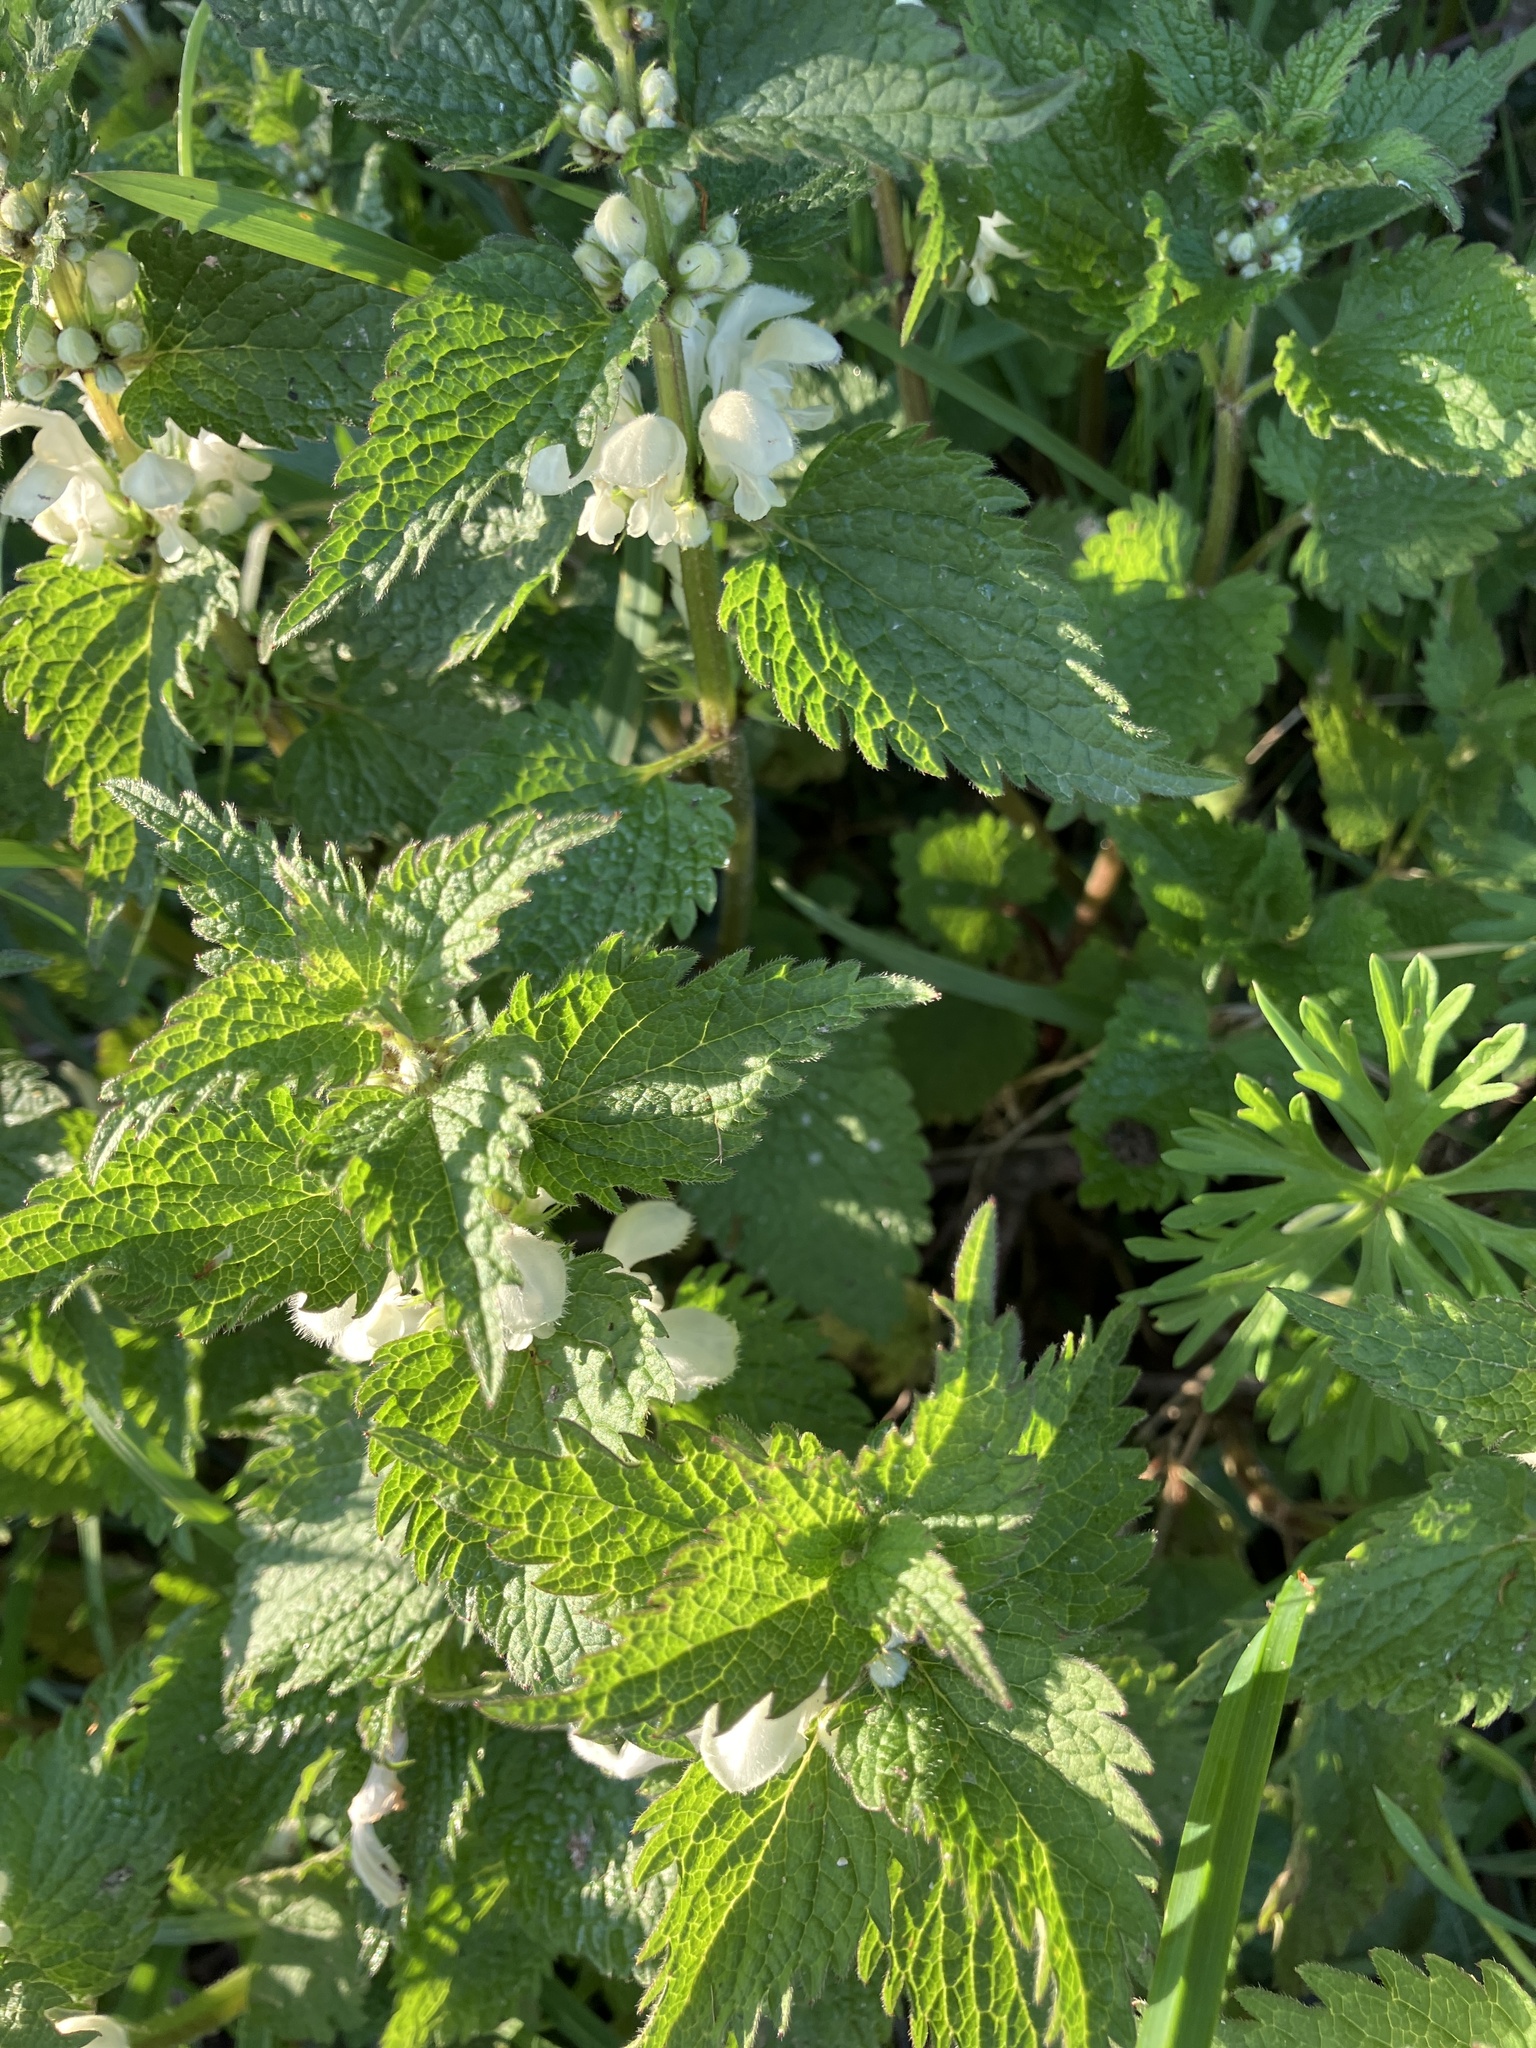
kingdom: Plantae
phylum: Tracheophyta
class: Magnoliopsida
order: Lamiales
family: Lamiaceae
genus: Lamium
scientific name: Lamium album
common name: White dead-nettle
